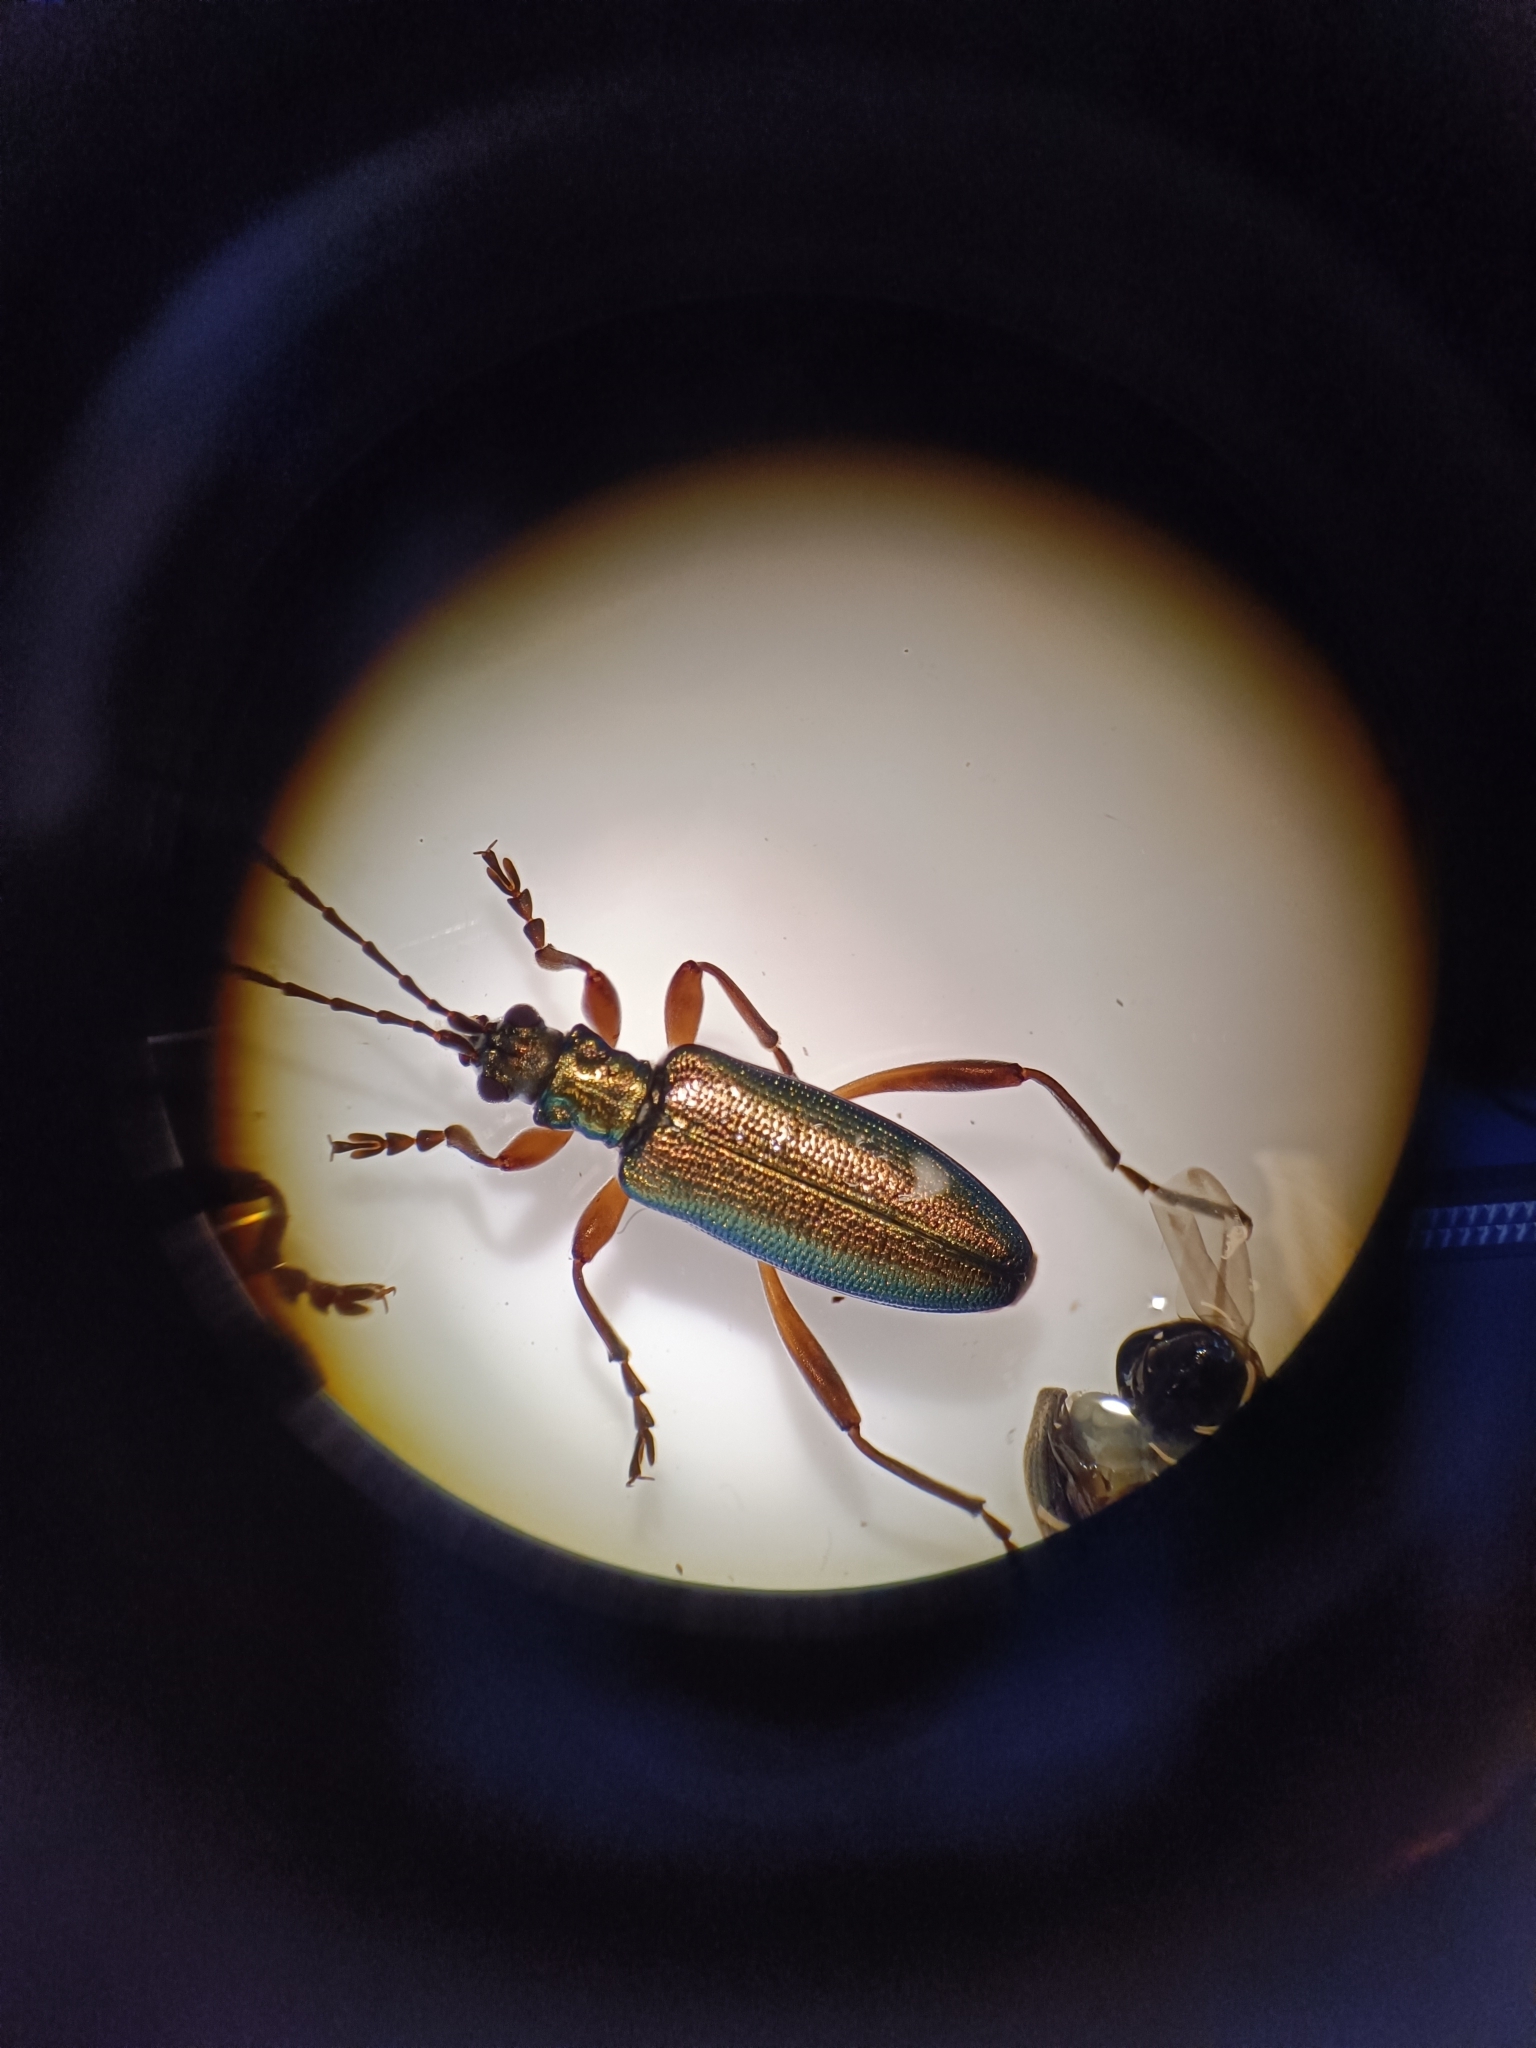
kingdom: Animalia
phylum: Arthropoda
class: Insecta
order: Coleoptera
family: Chrysomelidae
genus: Donacia
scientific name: Donacia clavipes
